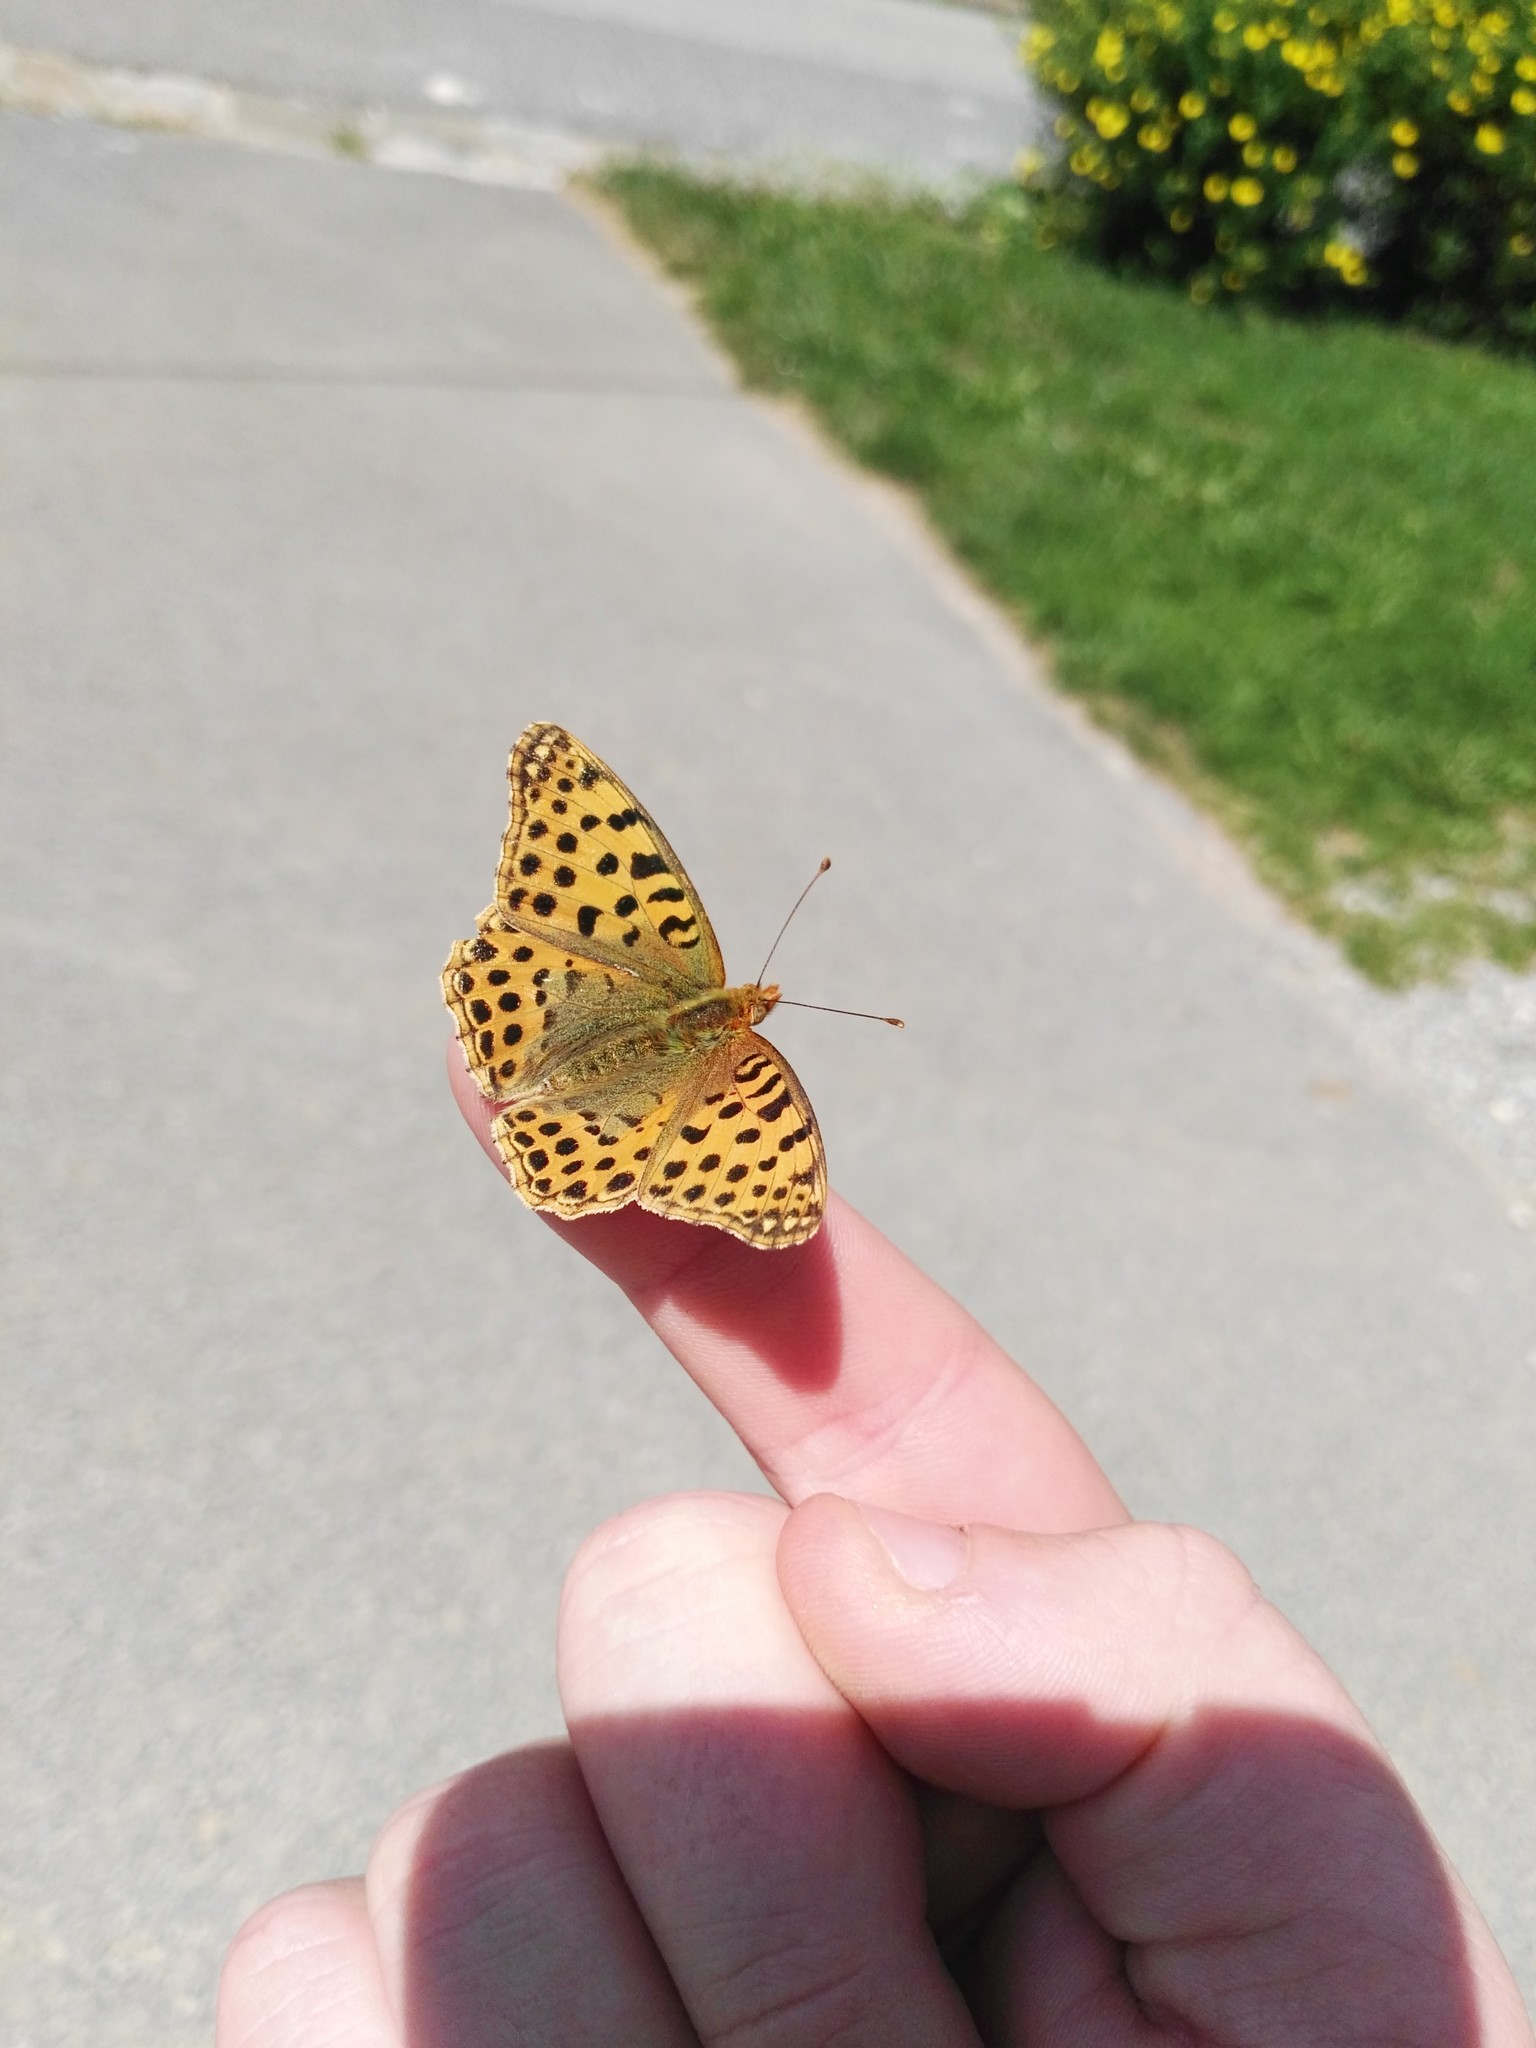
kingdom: Animalia
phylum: Arthropoda
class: Insecta
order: Lepidoptera
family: Nymphalidae
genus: Issoria
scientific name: Issoria lathonia
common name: Queen of spain fritillary
